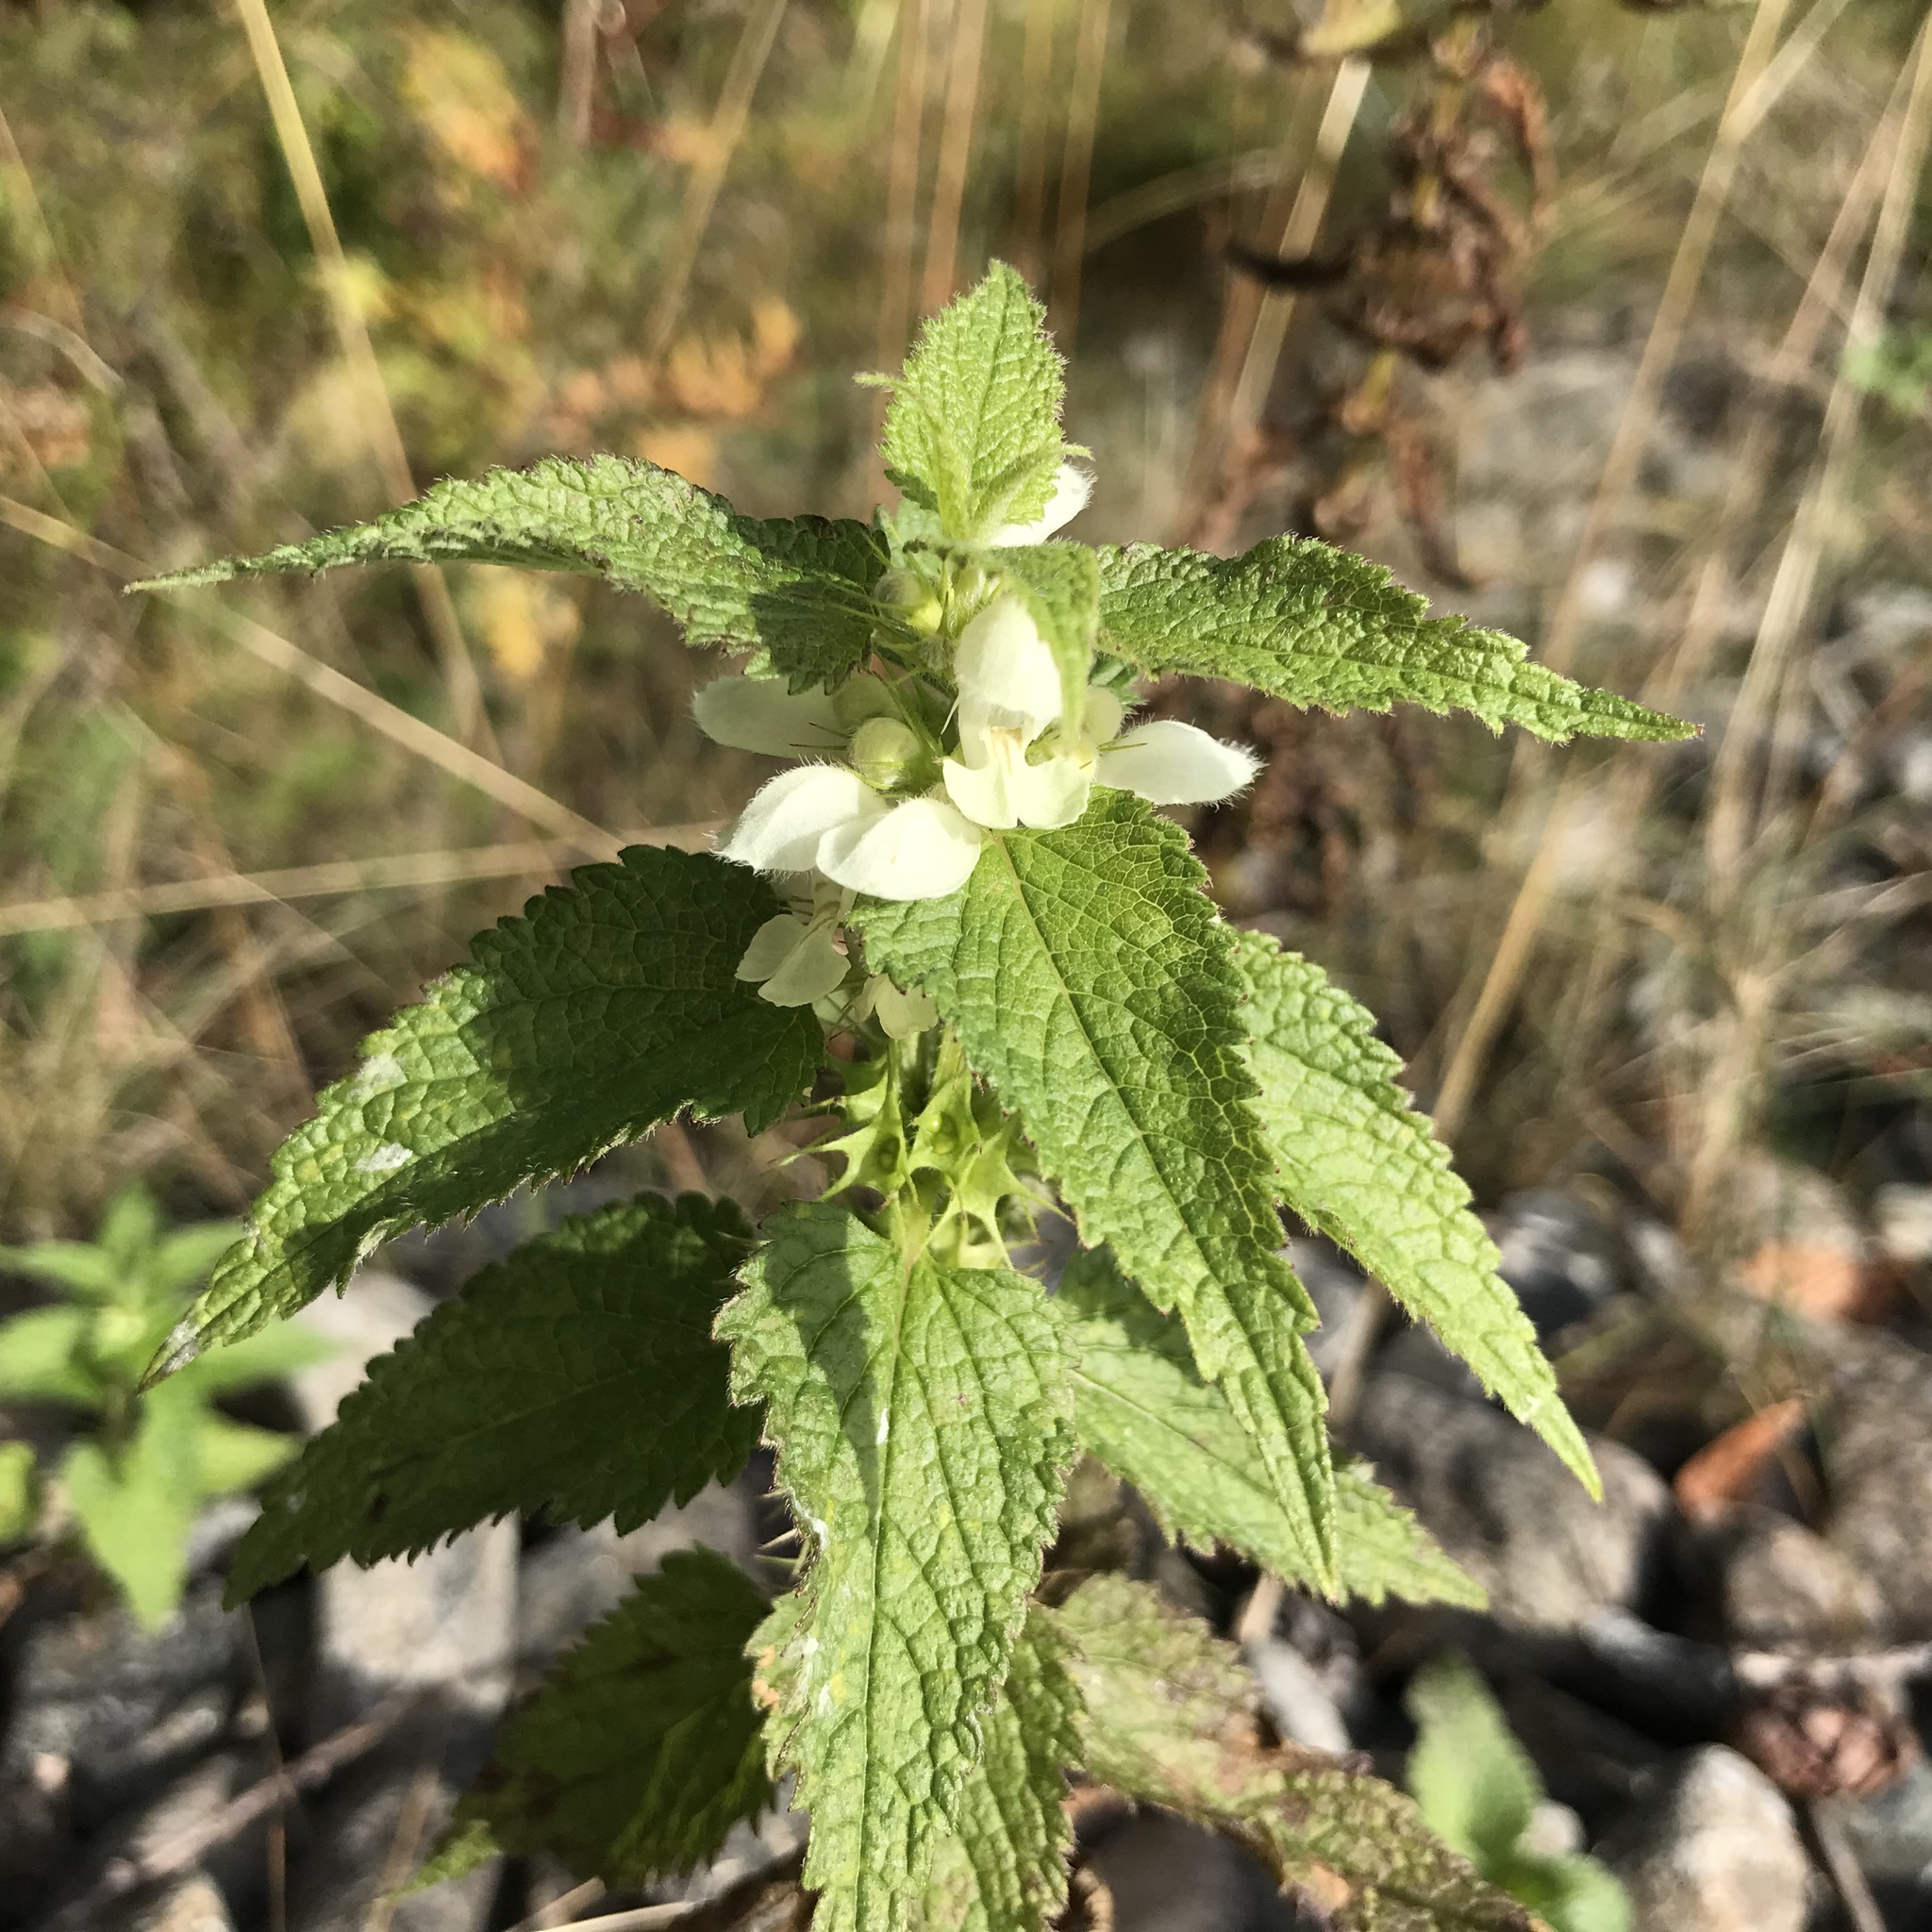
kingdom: Plantae
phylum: Tracheophyta
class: Magnoliopsida
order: Lamiales
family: Lamiaceae
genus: Lamium
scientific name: Lamium album
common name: White dead-nettle
